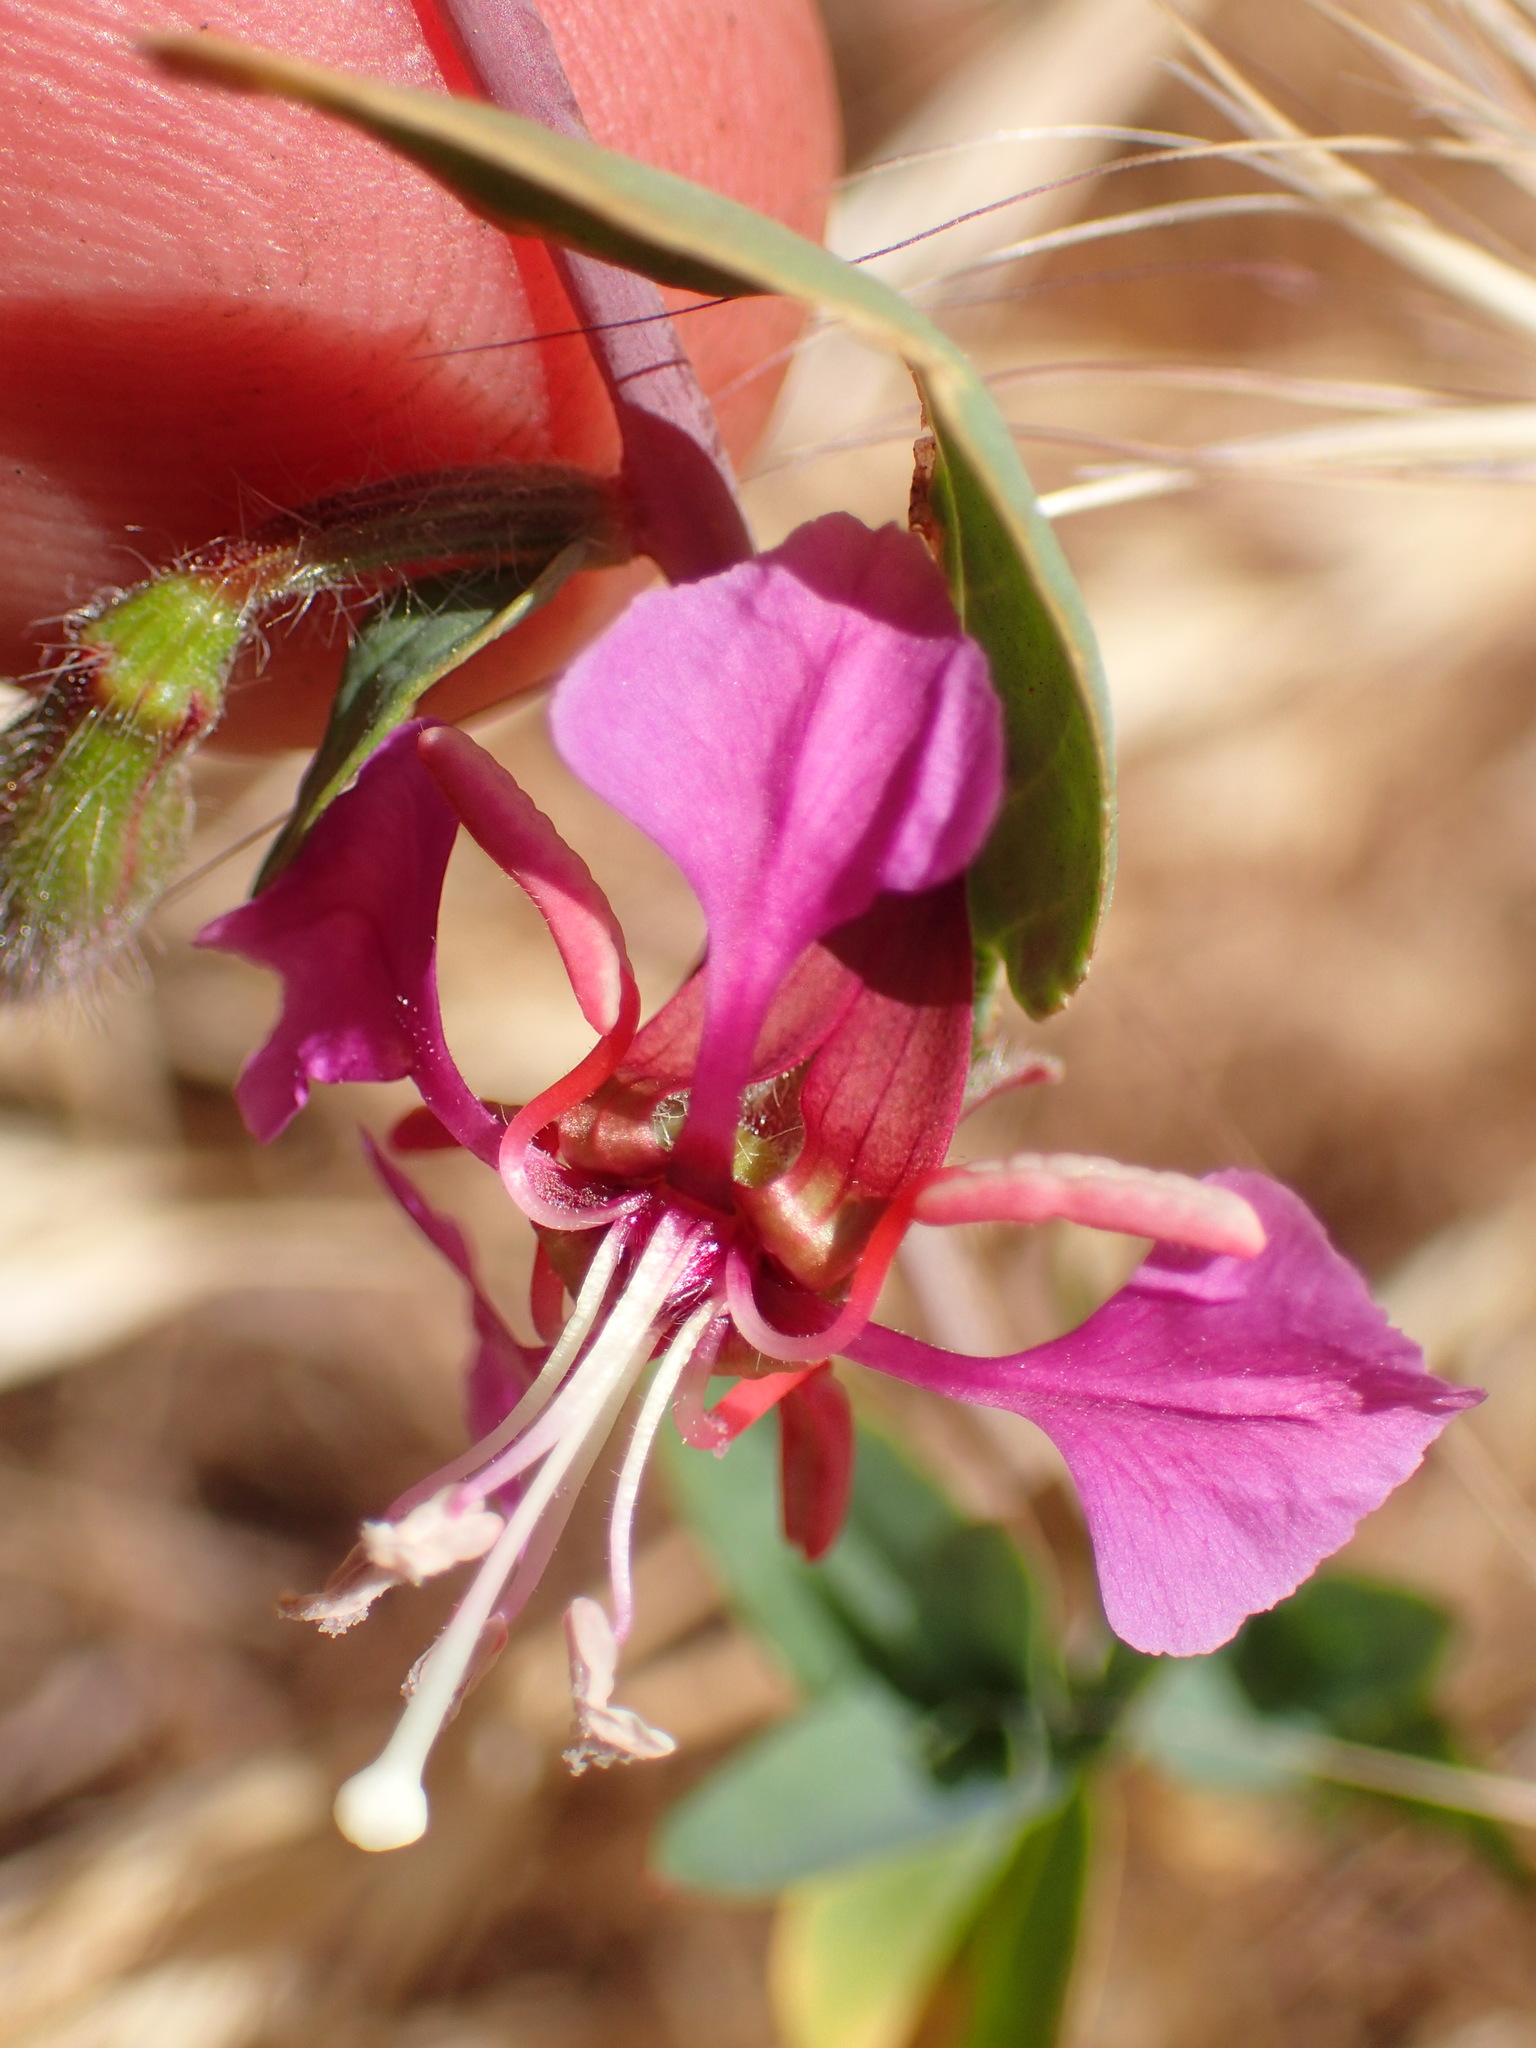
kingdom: Plantae
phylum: Tracheophyta
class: Magnoliopsida
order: Myrtales
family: Onagraceae
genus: Clarkia
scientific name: Clarkia unguiculata
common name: Clarkia
